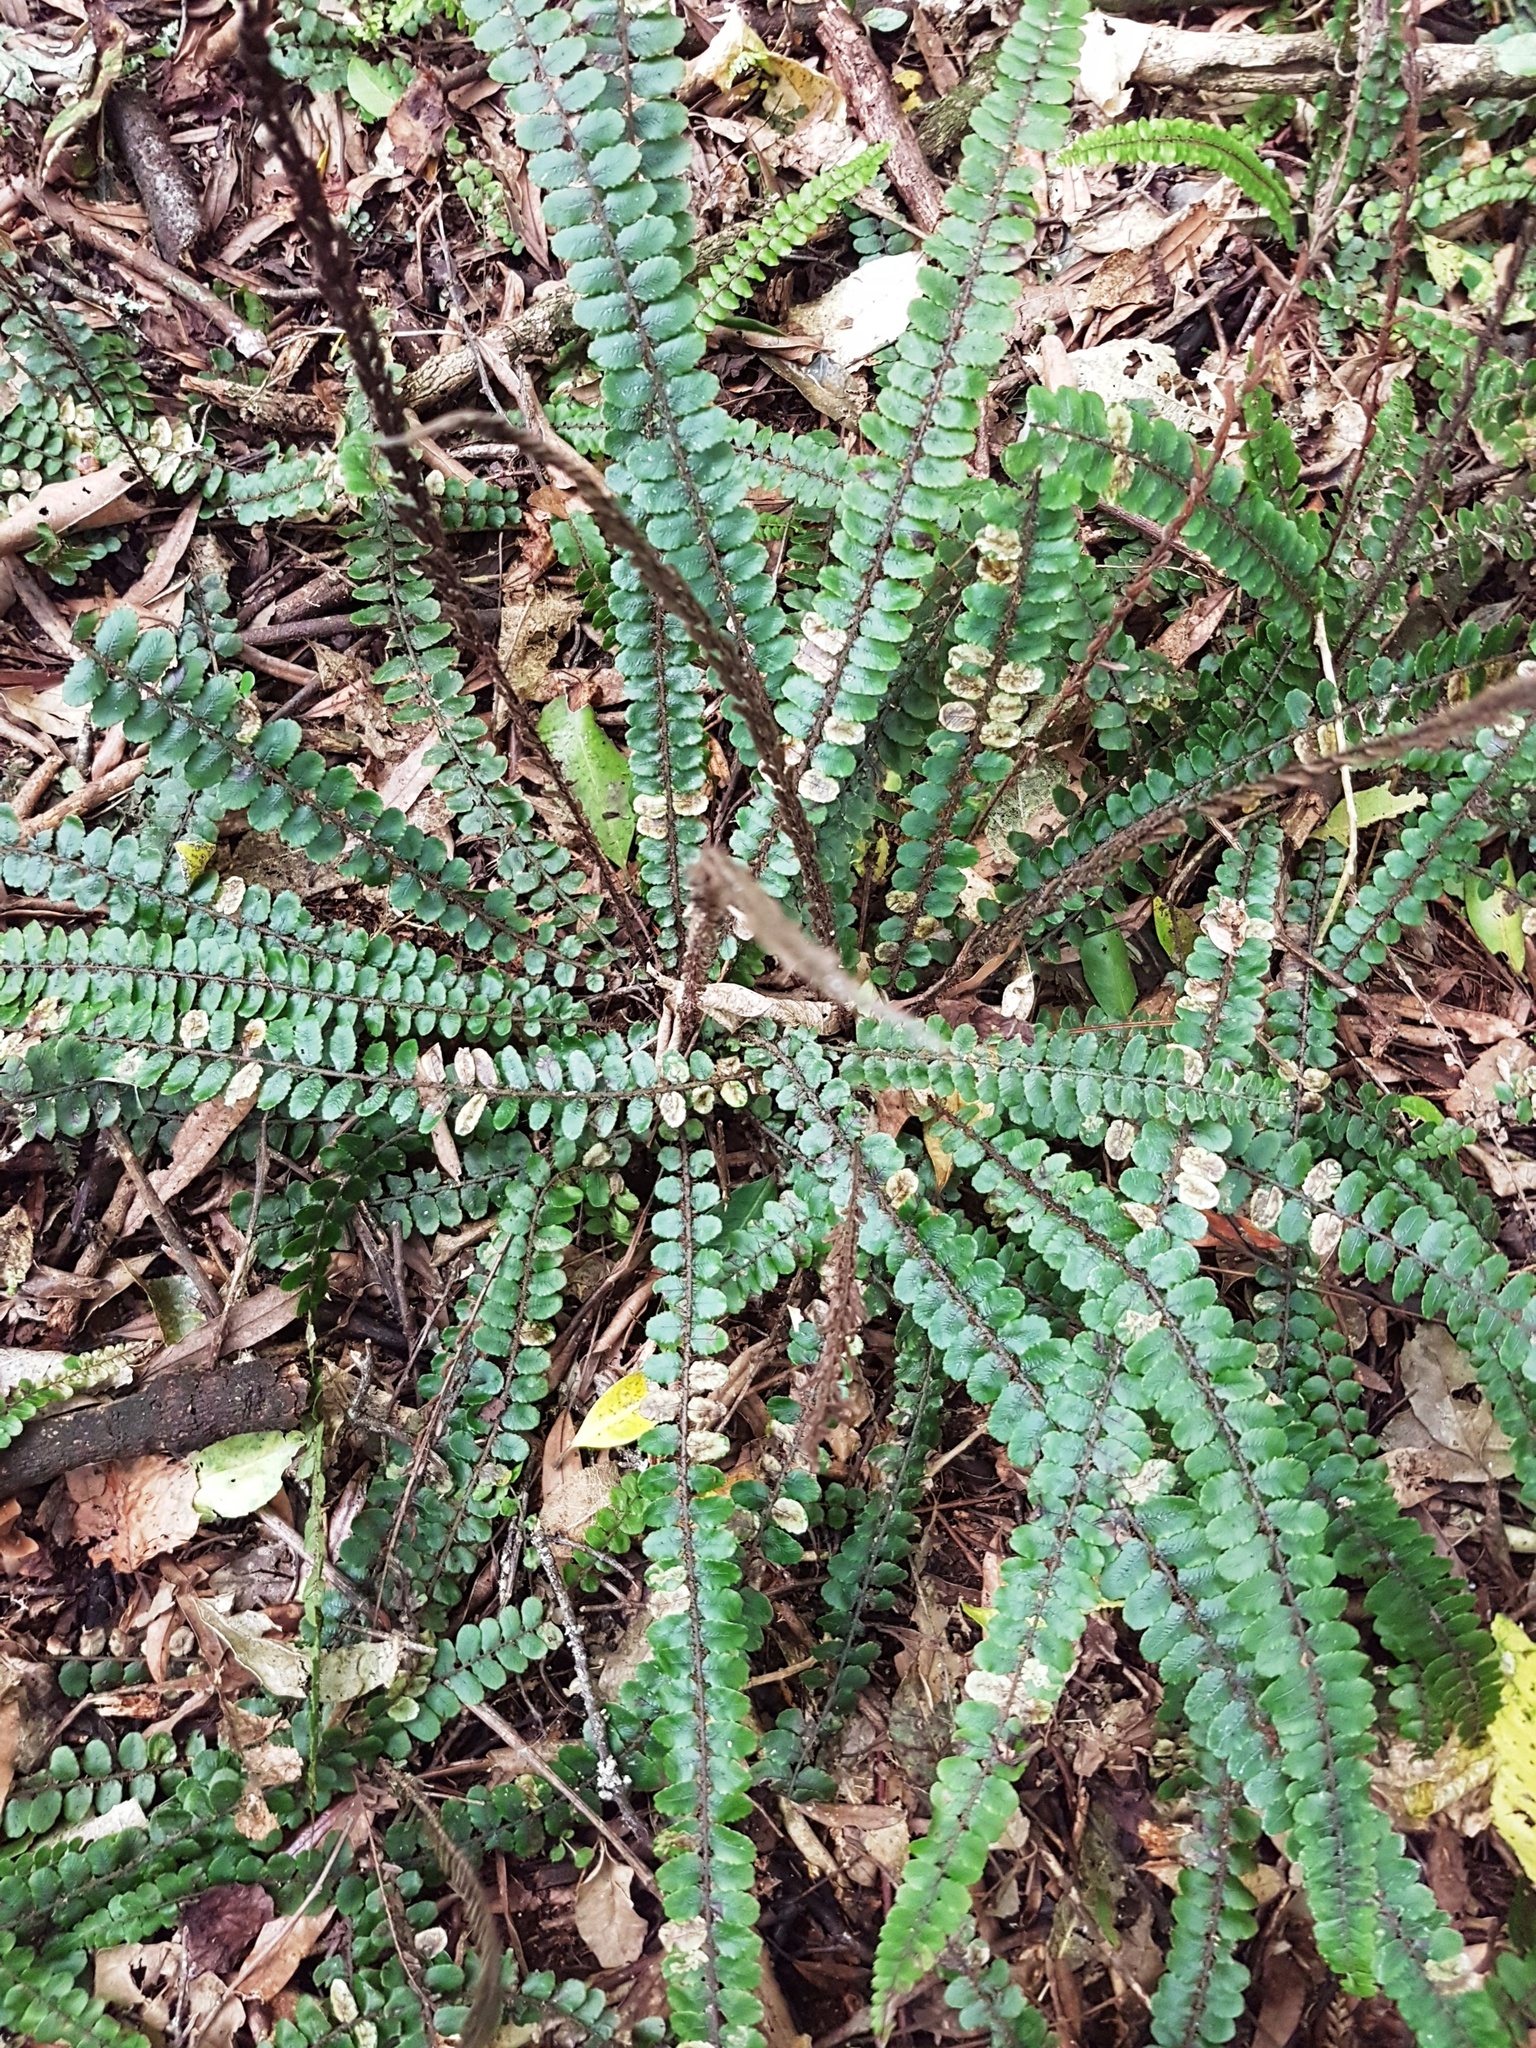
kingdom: Plantae
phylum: Tracheophyta
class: Polypodiopsida
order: Polypodiales
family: Blechnaceae
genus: Cranfillia
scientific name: Cranfillia fluviatilis
